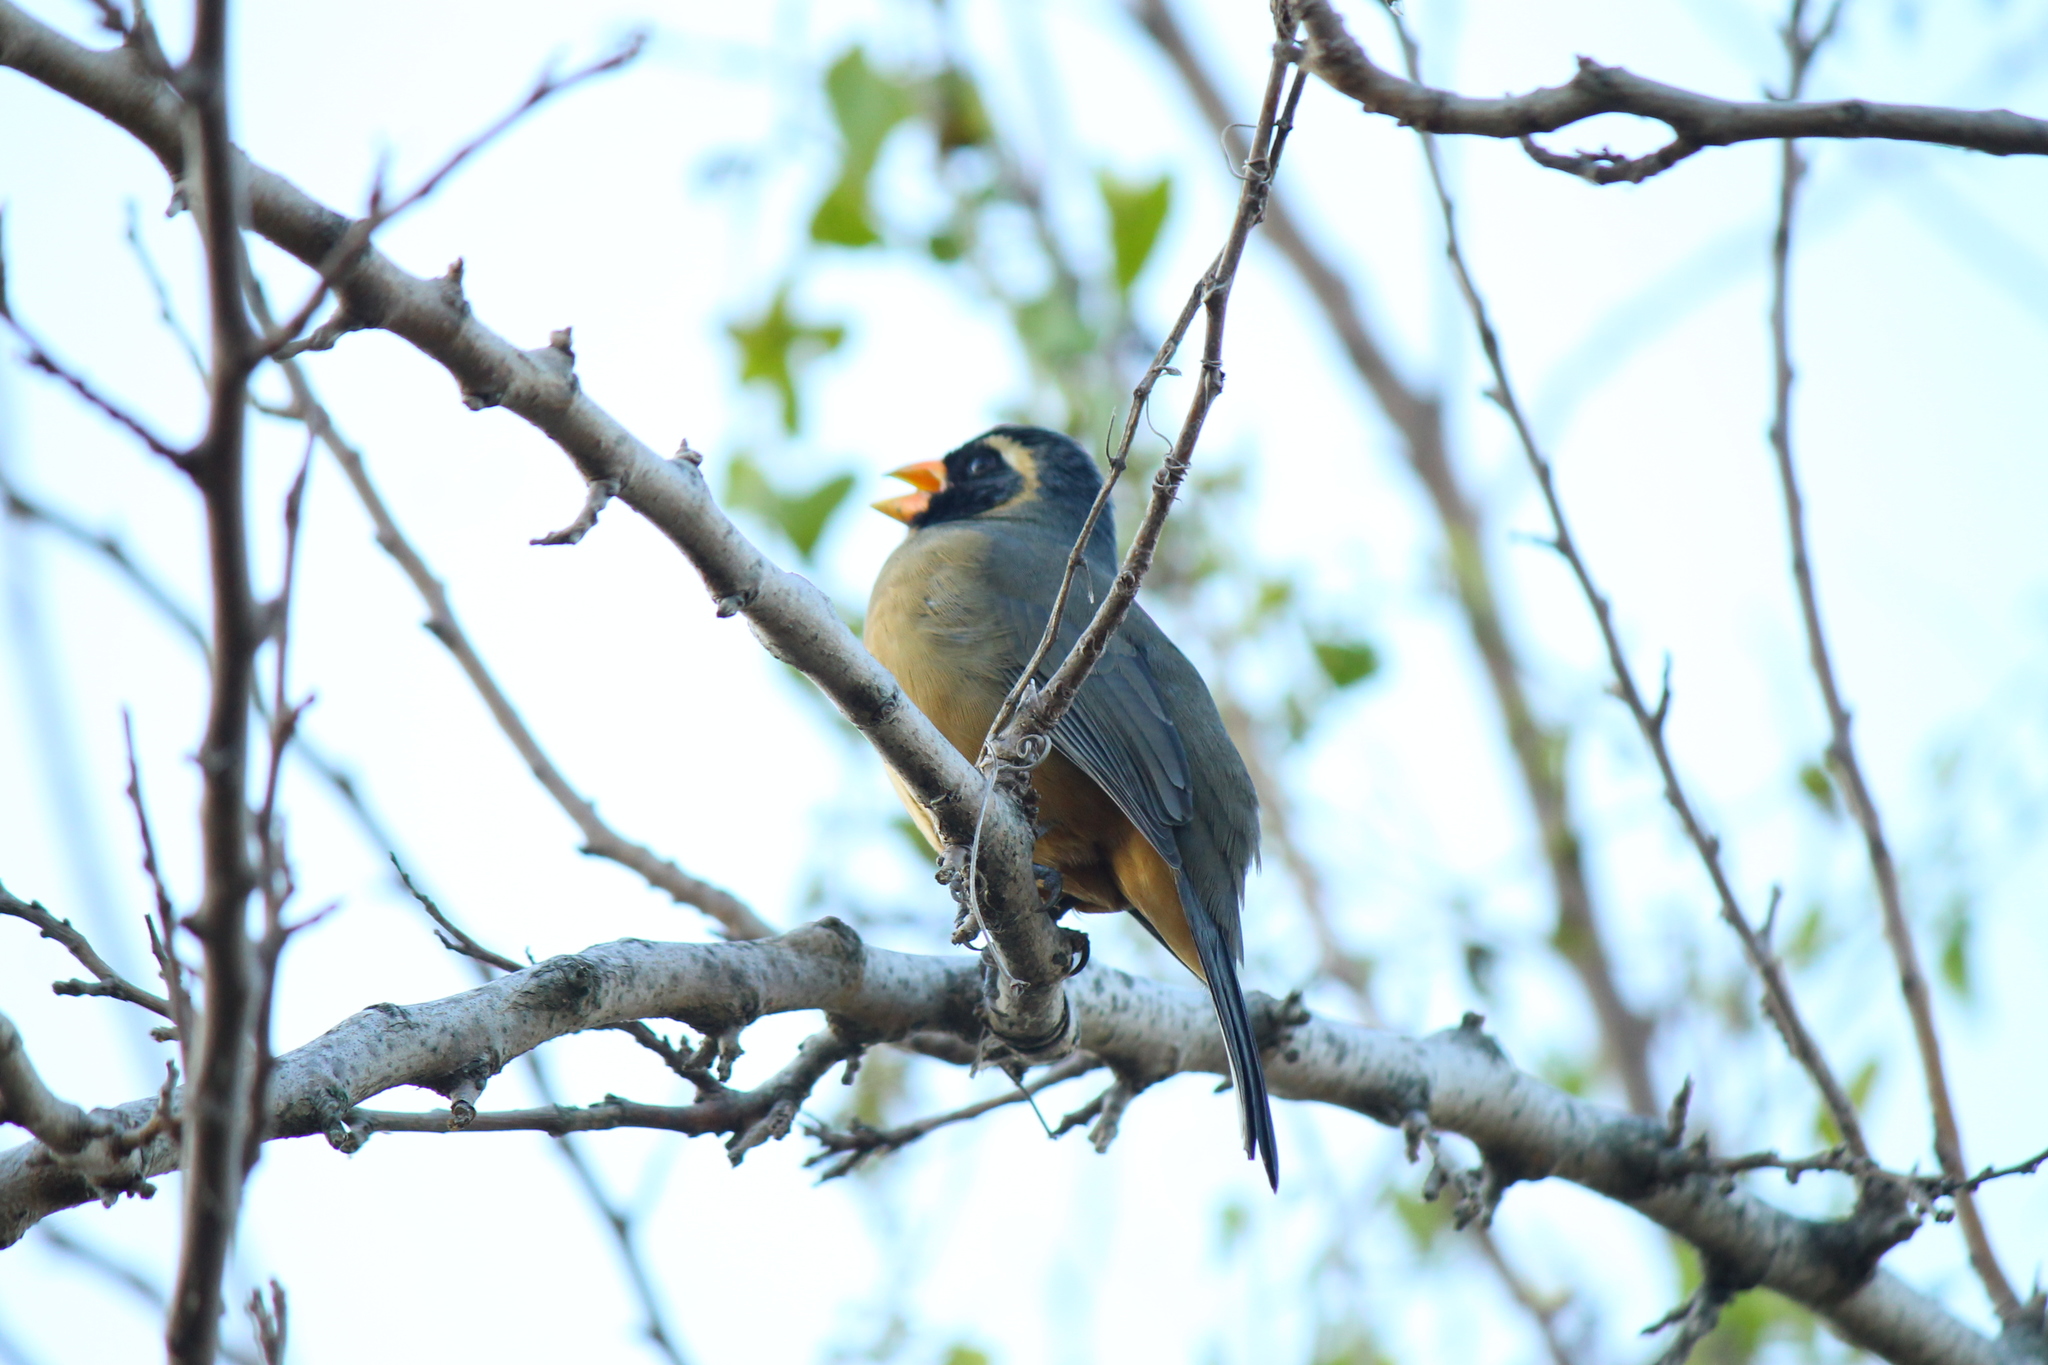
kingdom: Animalia
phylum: Chordata
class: Aves
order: Passeriformes
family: Thraupidae
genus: Saltator
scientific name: Saltator aurantiirostris
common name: Golden-billed saltator
